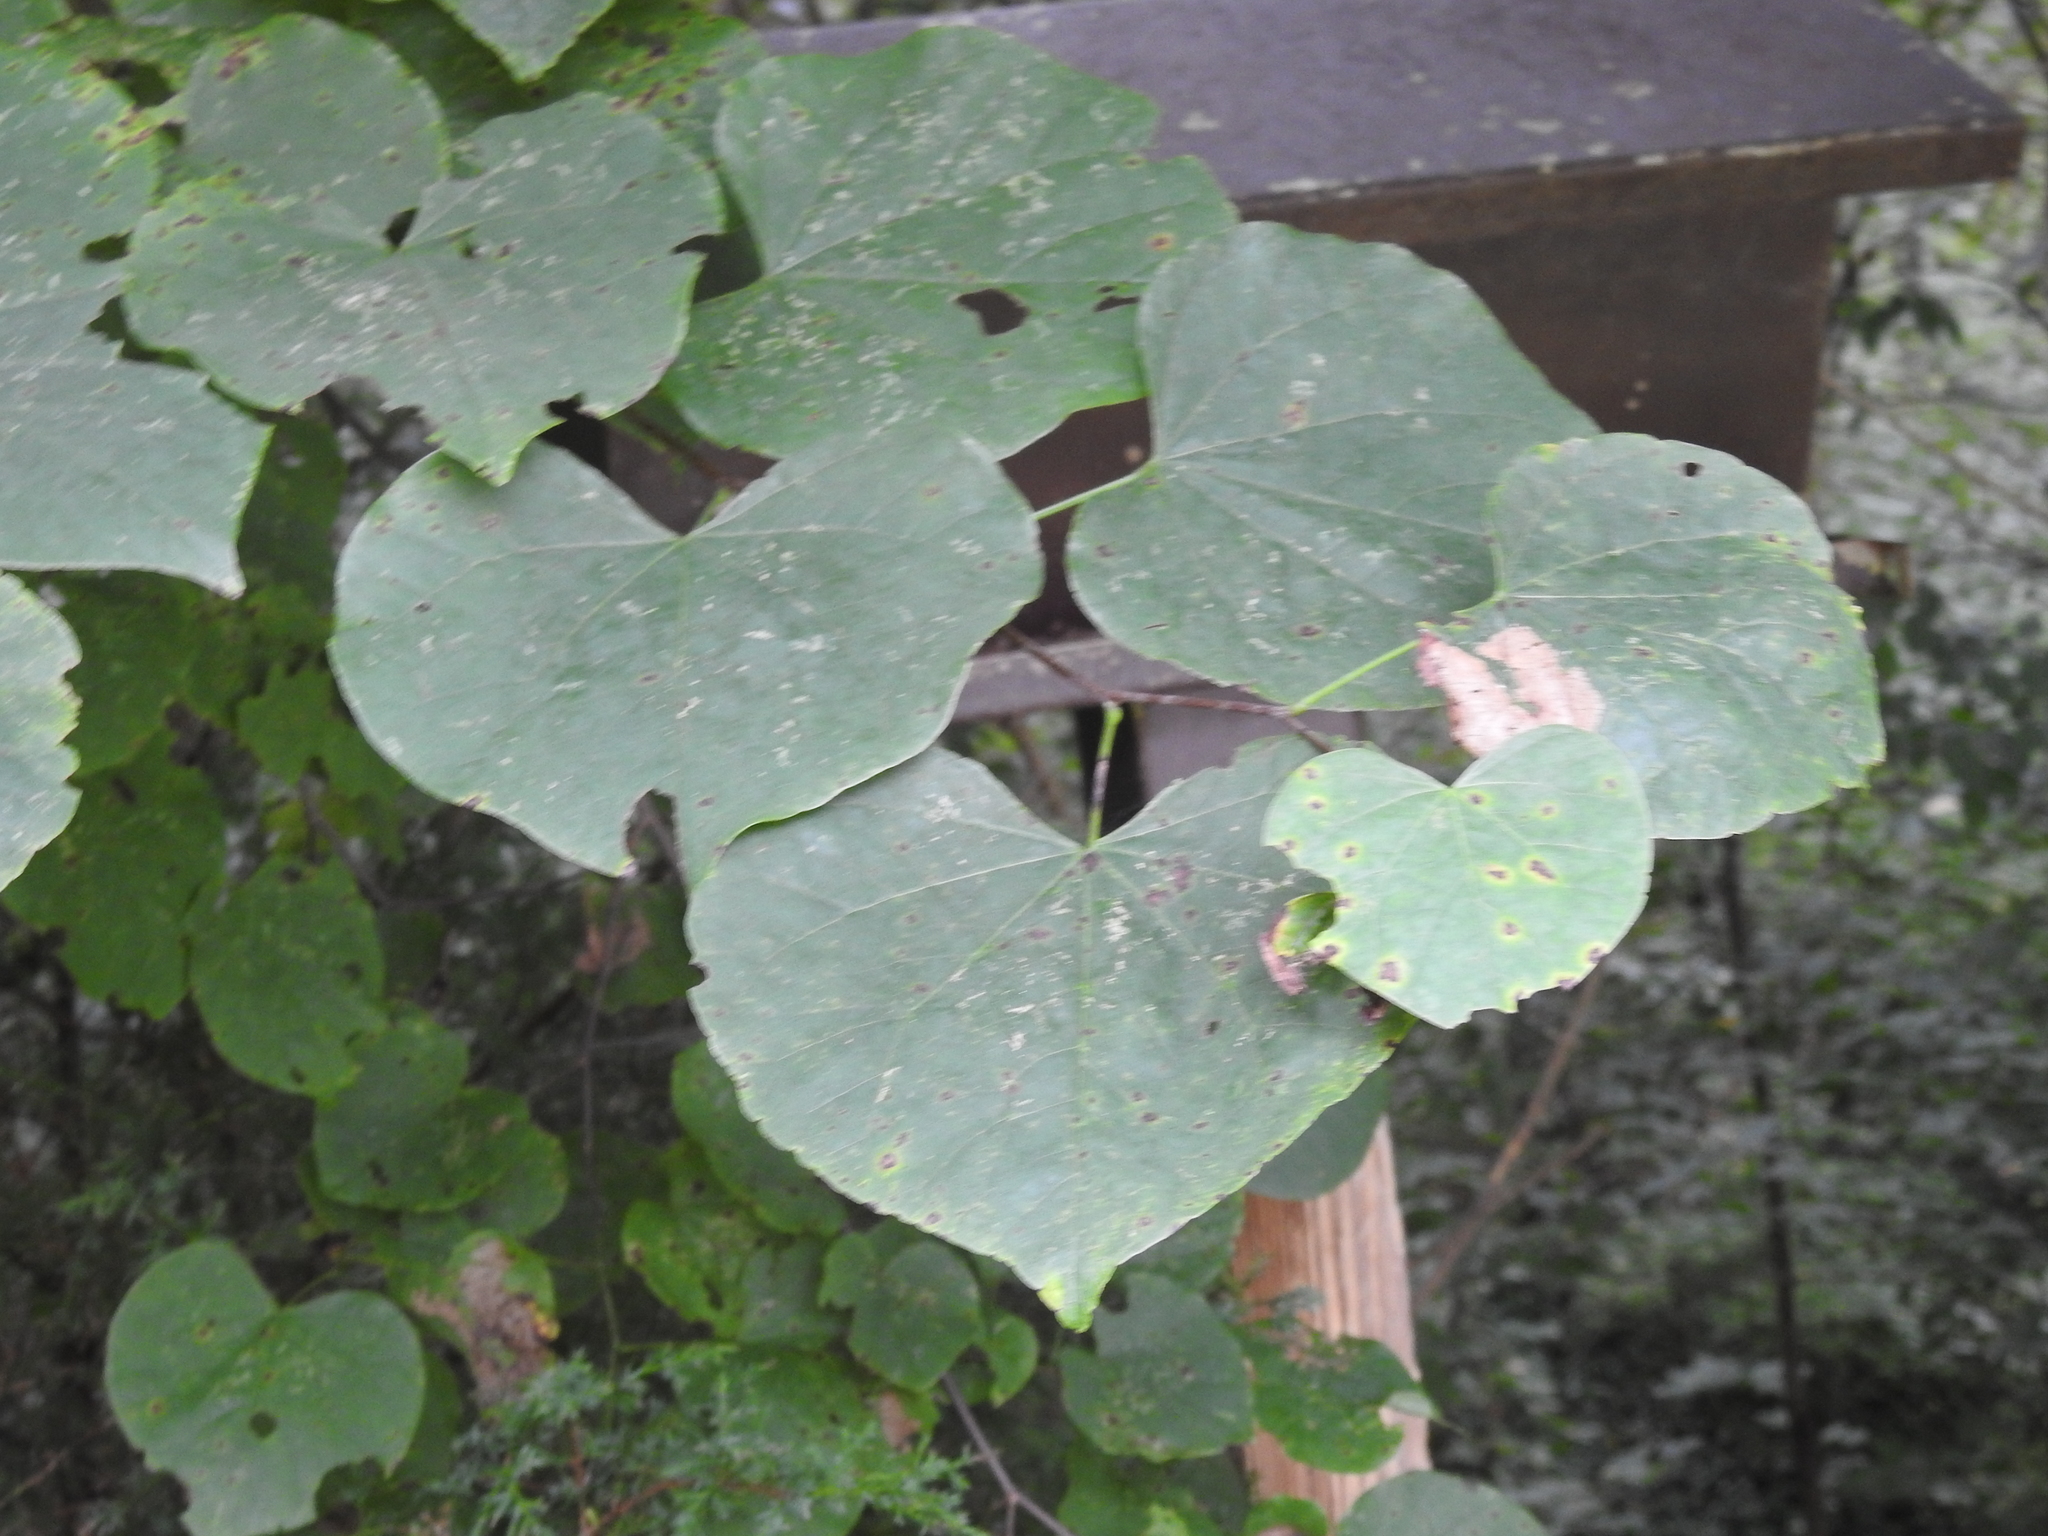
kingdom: Plantae
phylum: Tracheophyta
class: Magnoliopsida
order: Fabales
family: Fabaceae
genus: Cercis
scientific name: Cercis canadensis
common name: Eastern redbud
